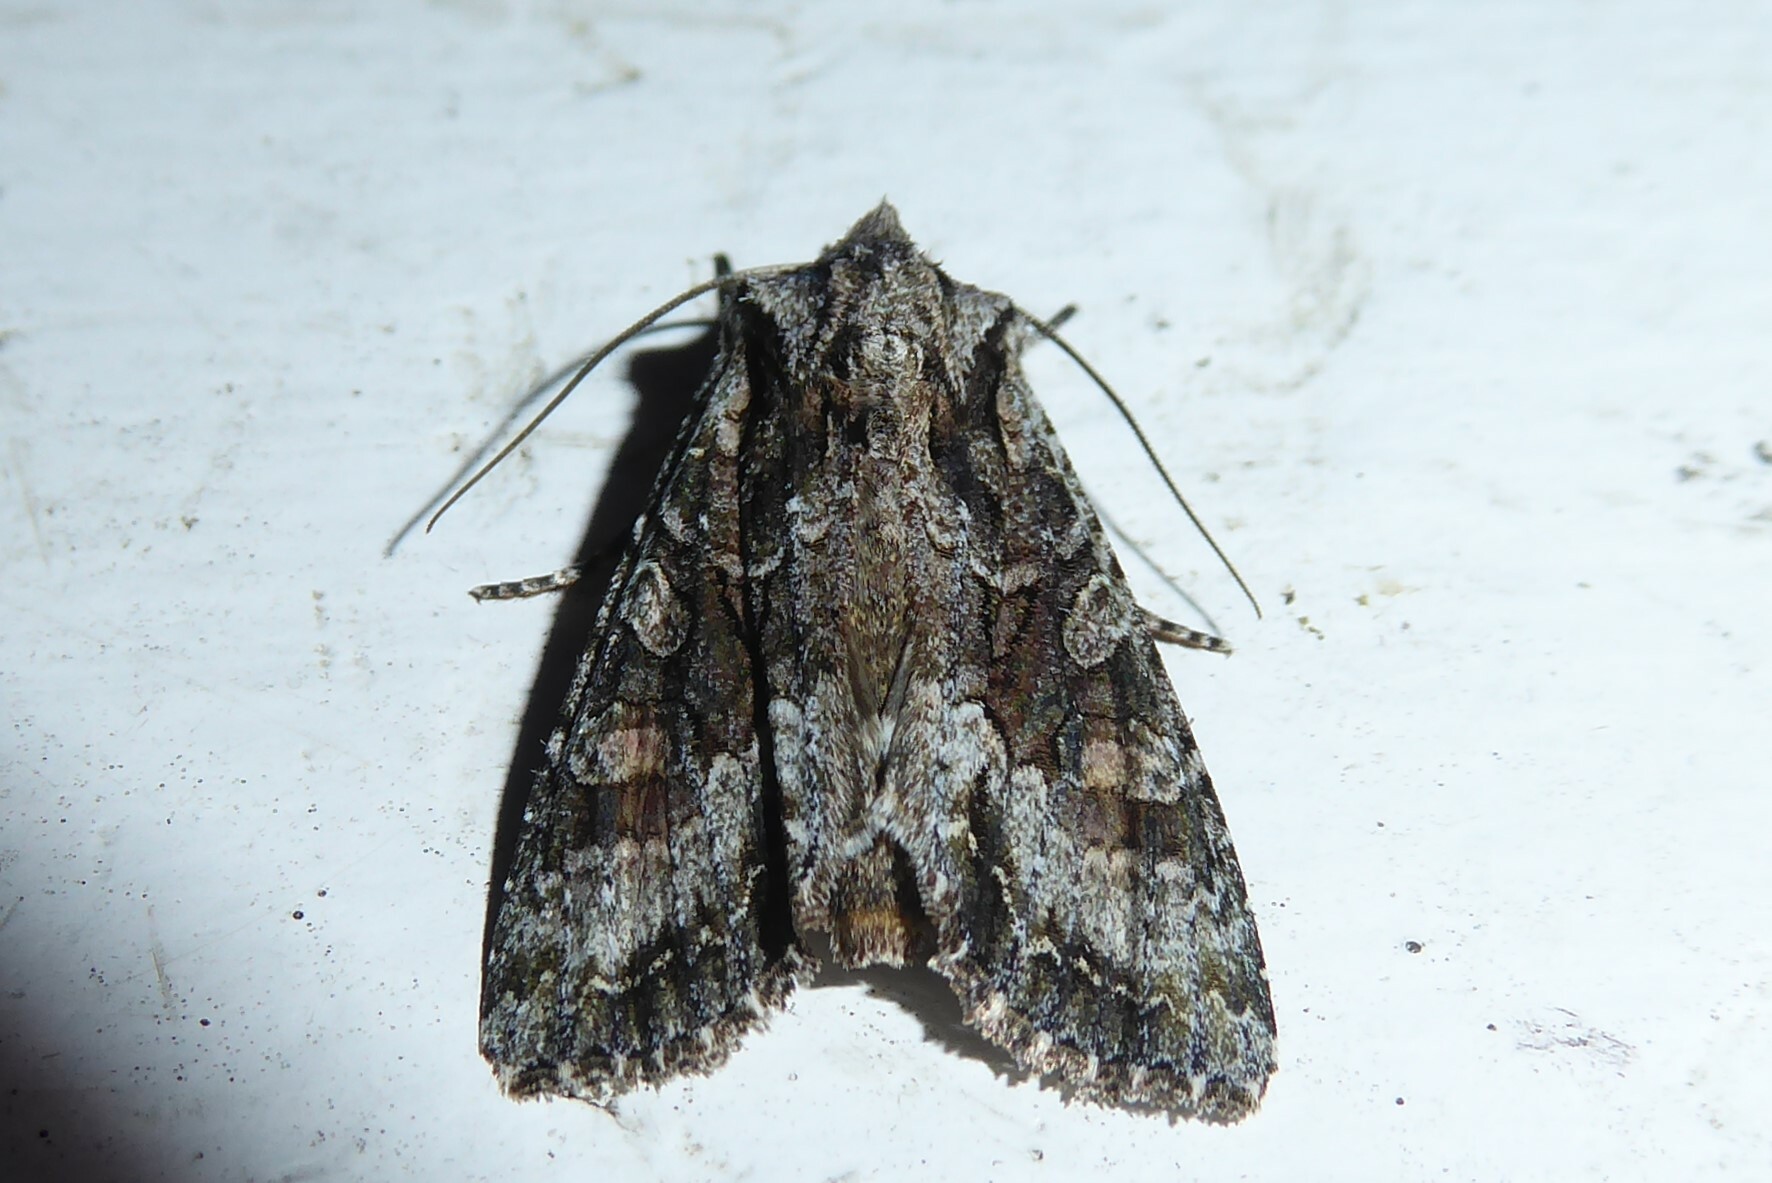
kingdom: Animalia
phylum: Arthropoda
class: Insecta
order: Lepidoptera
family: Noctuidae
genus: Ichneutica
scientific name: Ichneutica mutans
